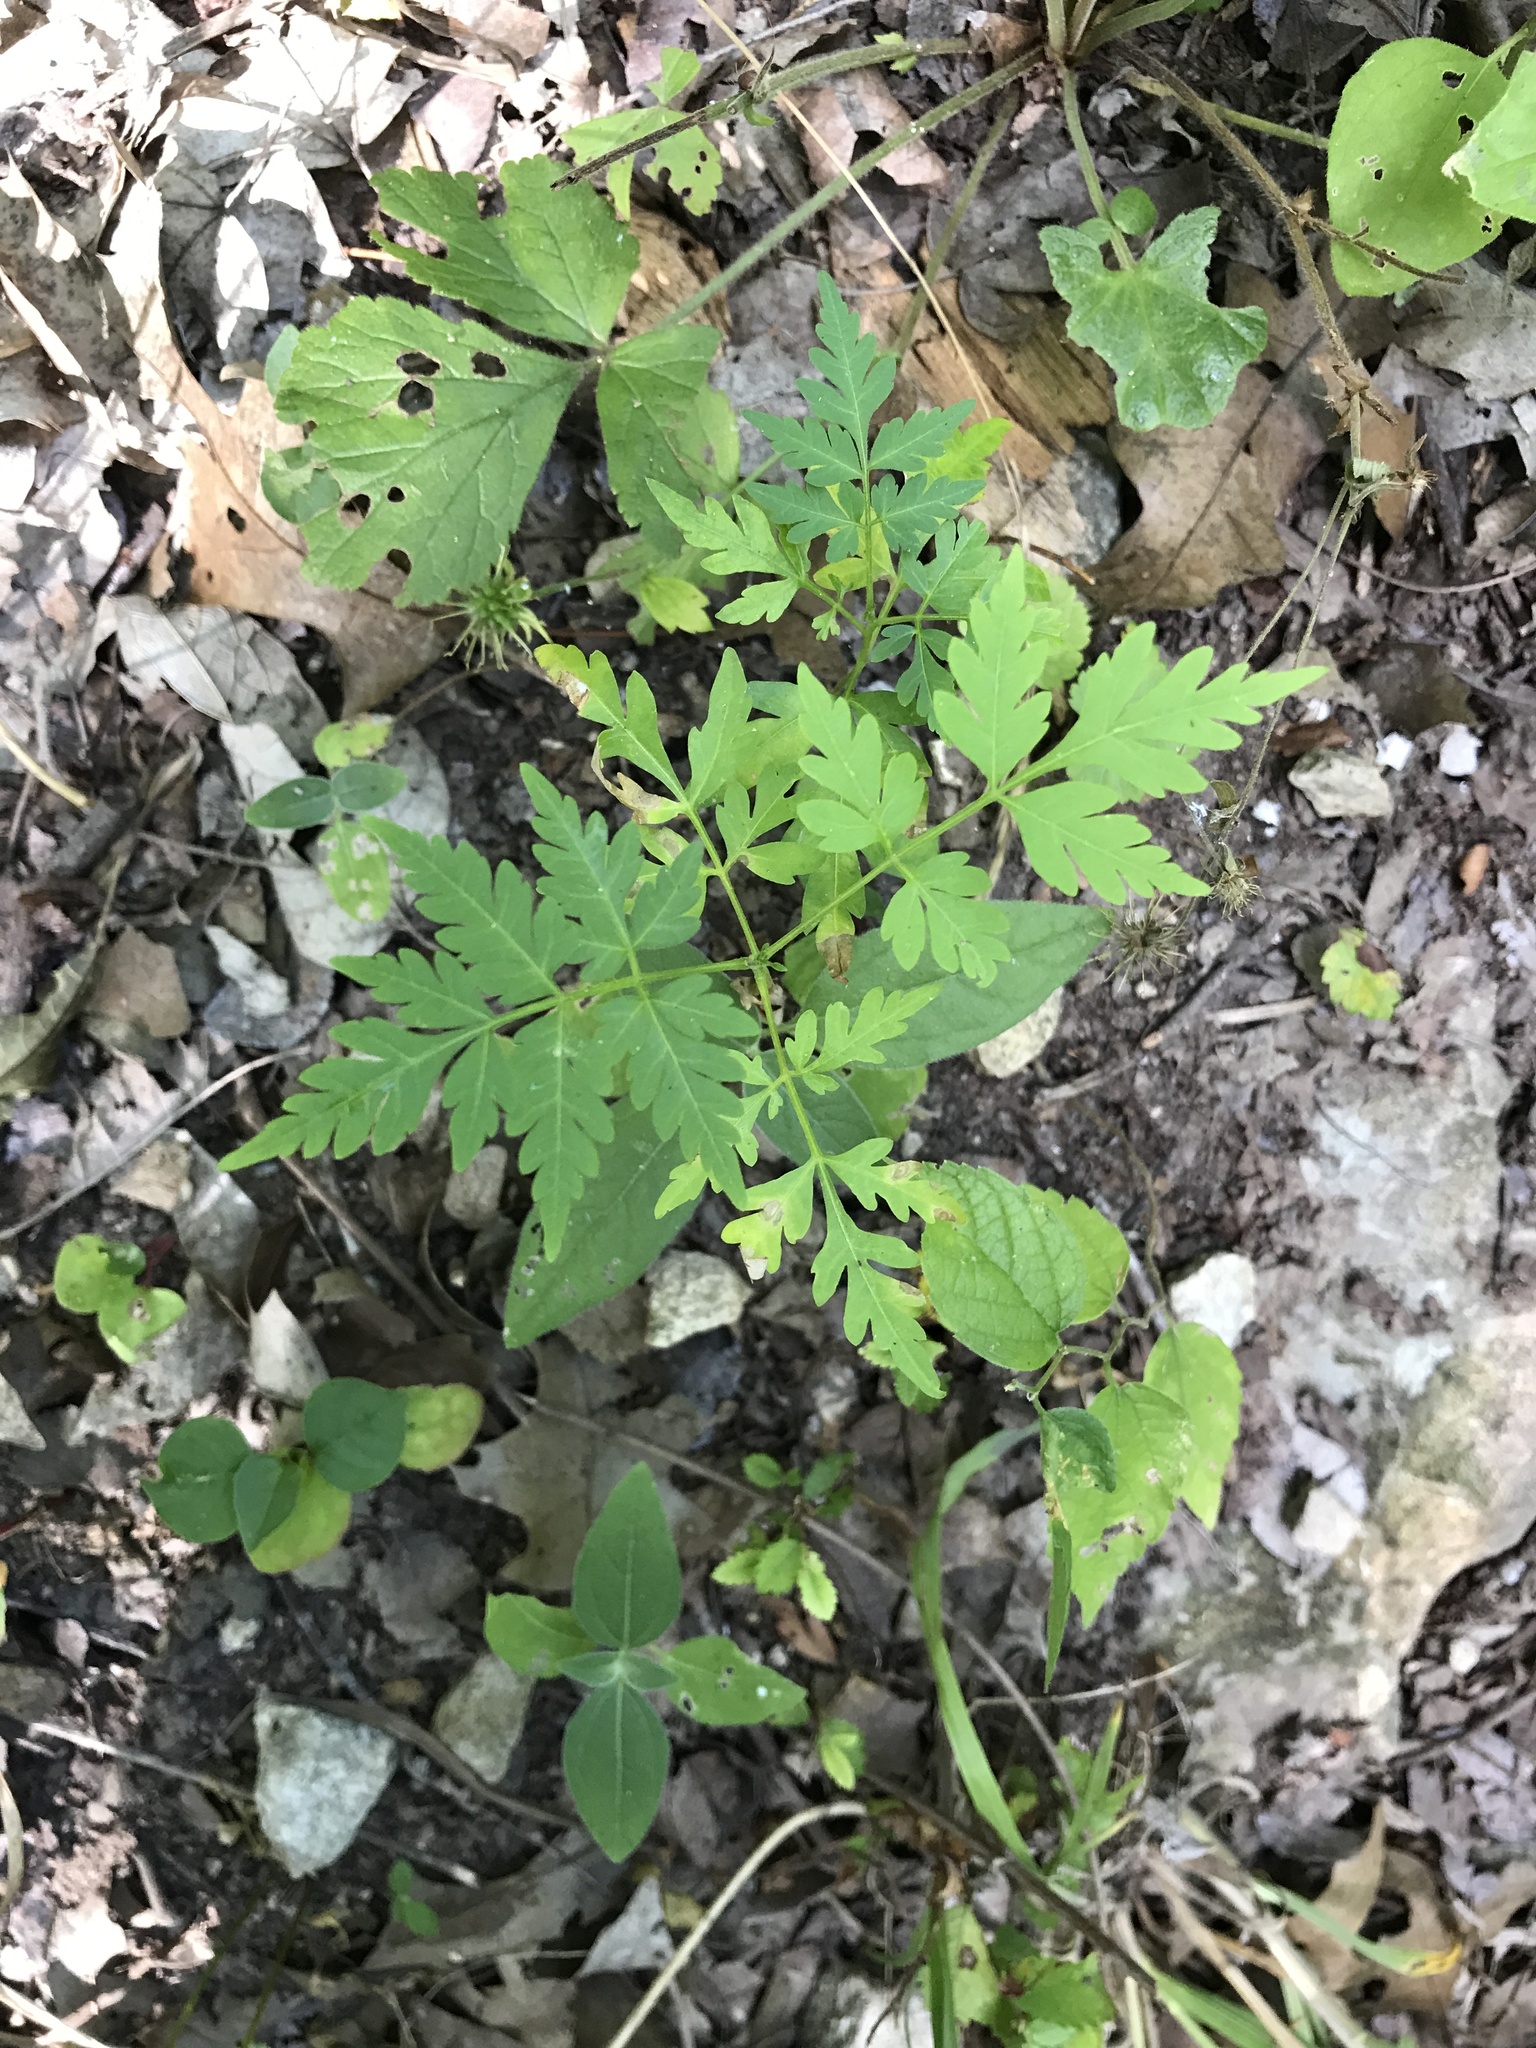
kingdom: Plantae
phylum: Tracheophyta
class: Magnoliopsida
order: Sapindales
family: Meliaceae
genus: Melia
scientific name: Melia azedarach
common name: Chinaberrytree
